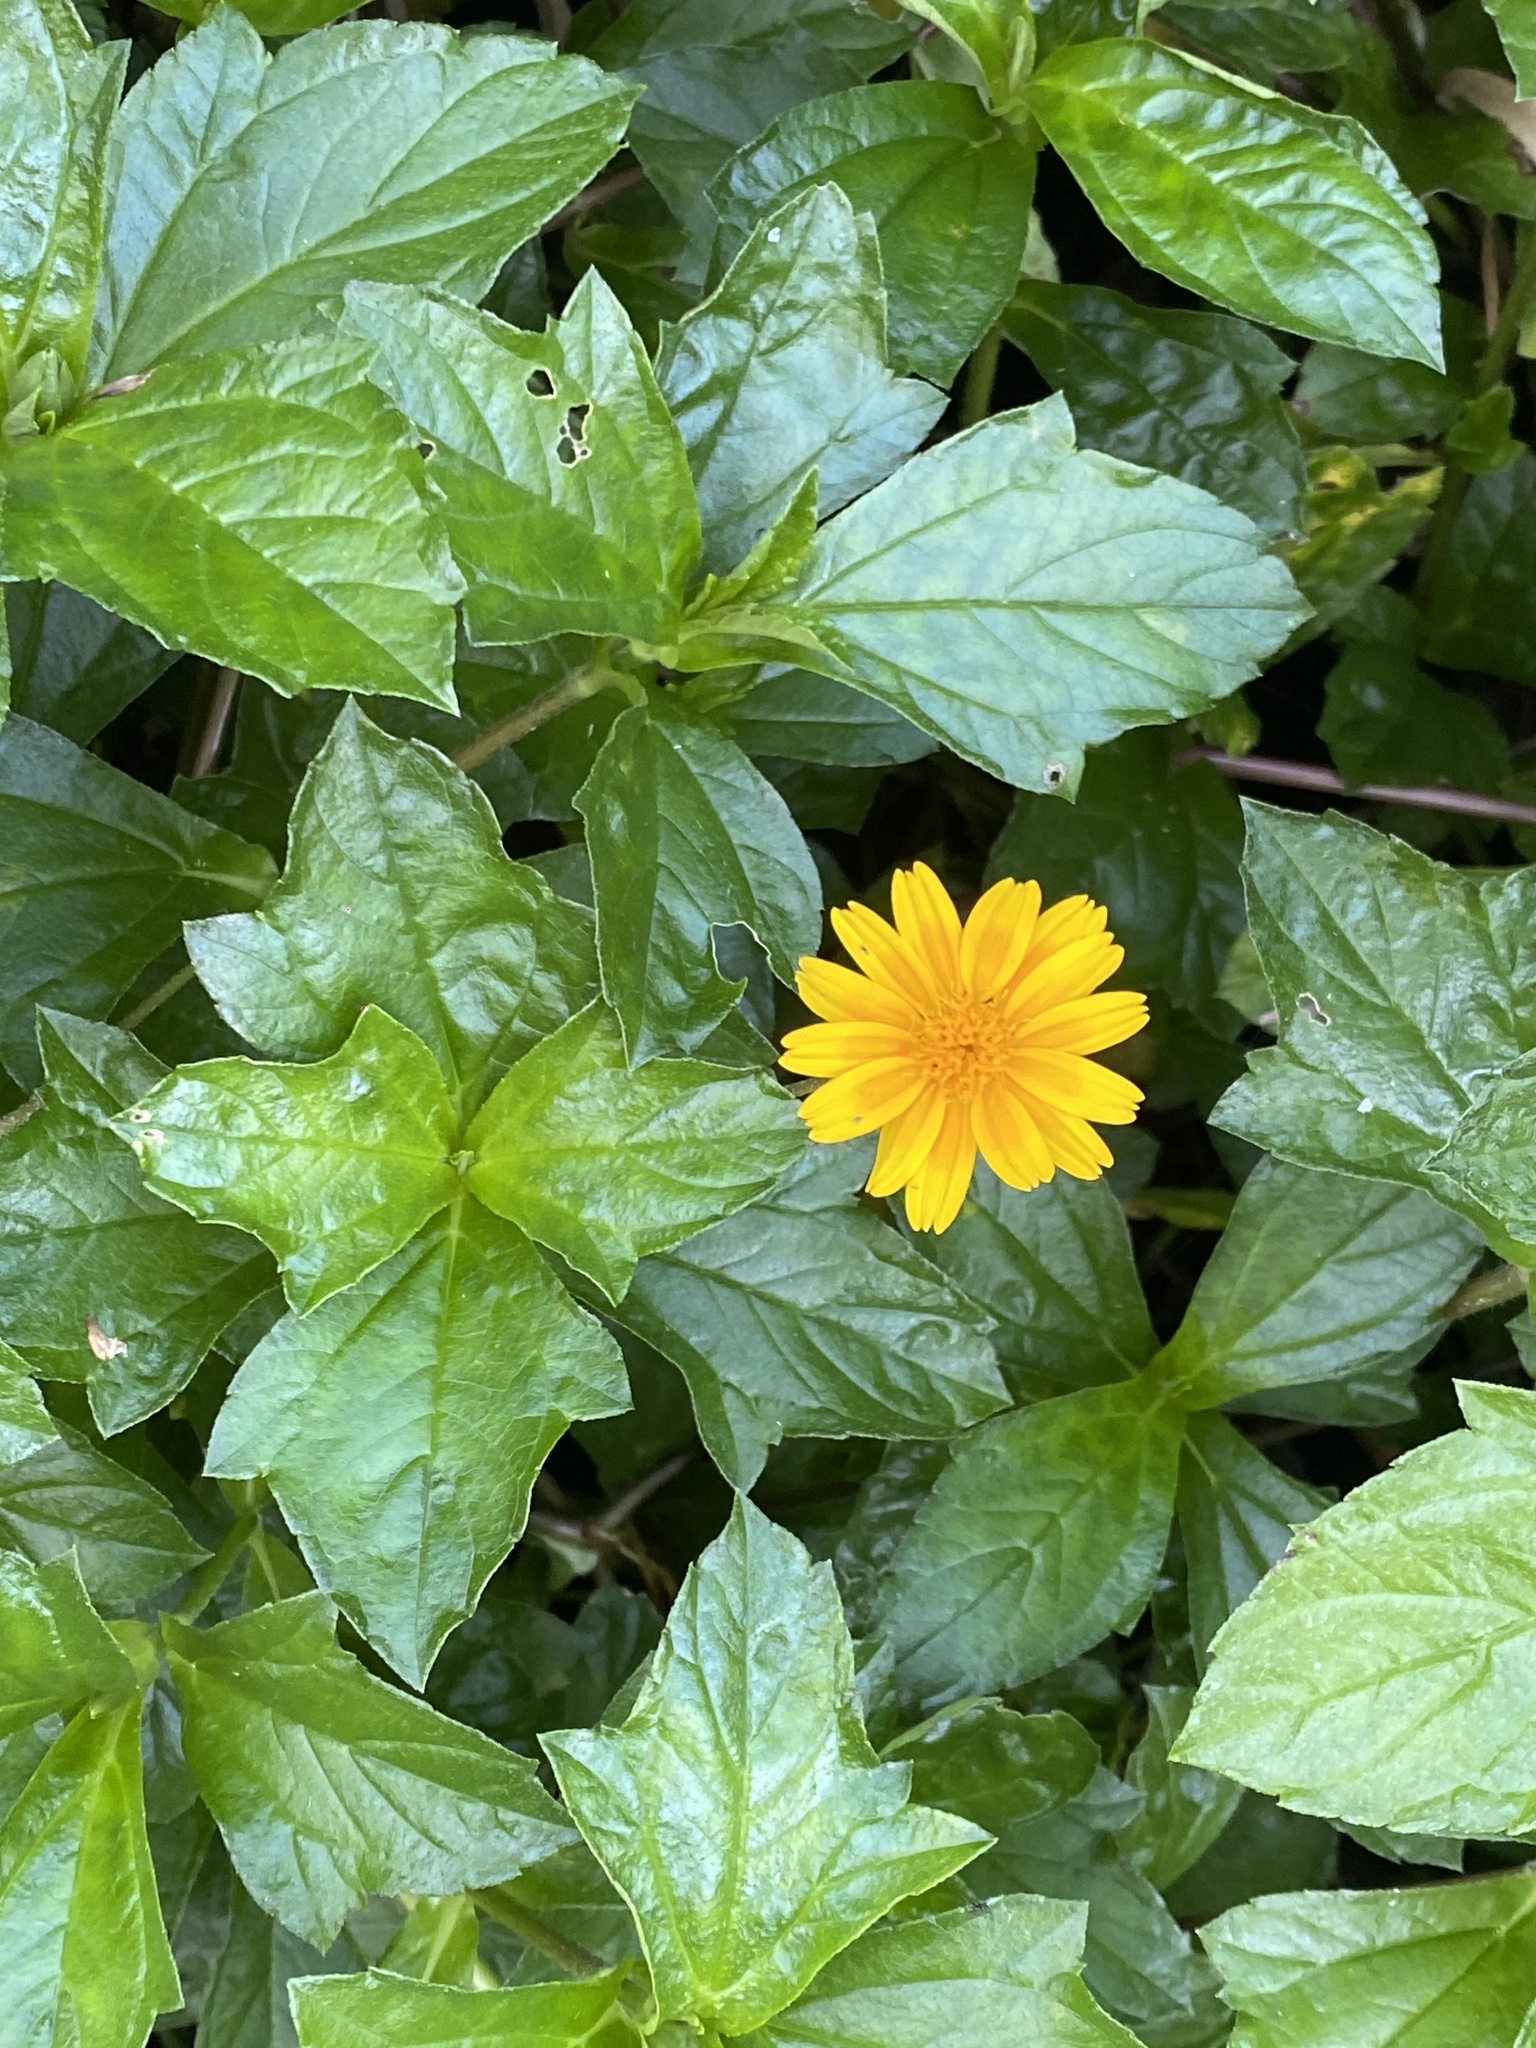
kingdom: Plantae
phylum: Tracheophyta
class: Magnoliopsida
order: Asterales
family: Asteraceae
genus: Sphagneticola
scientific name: Sphagneticola trilobata
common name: Bay biscayne creeping-oxeye
